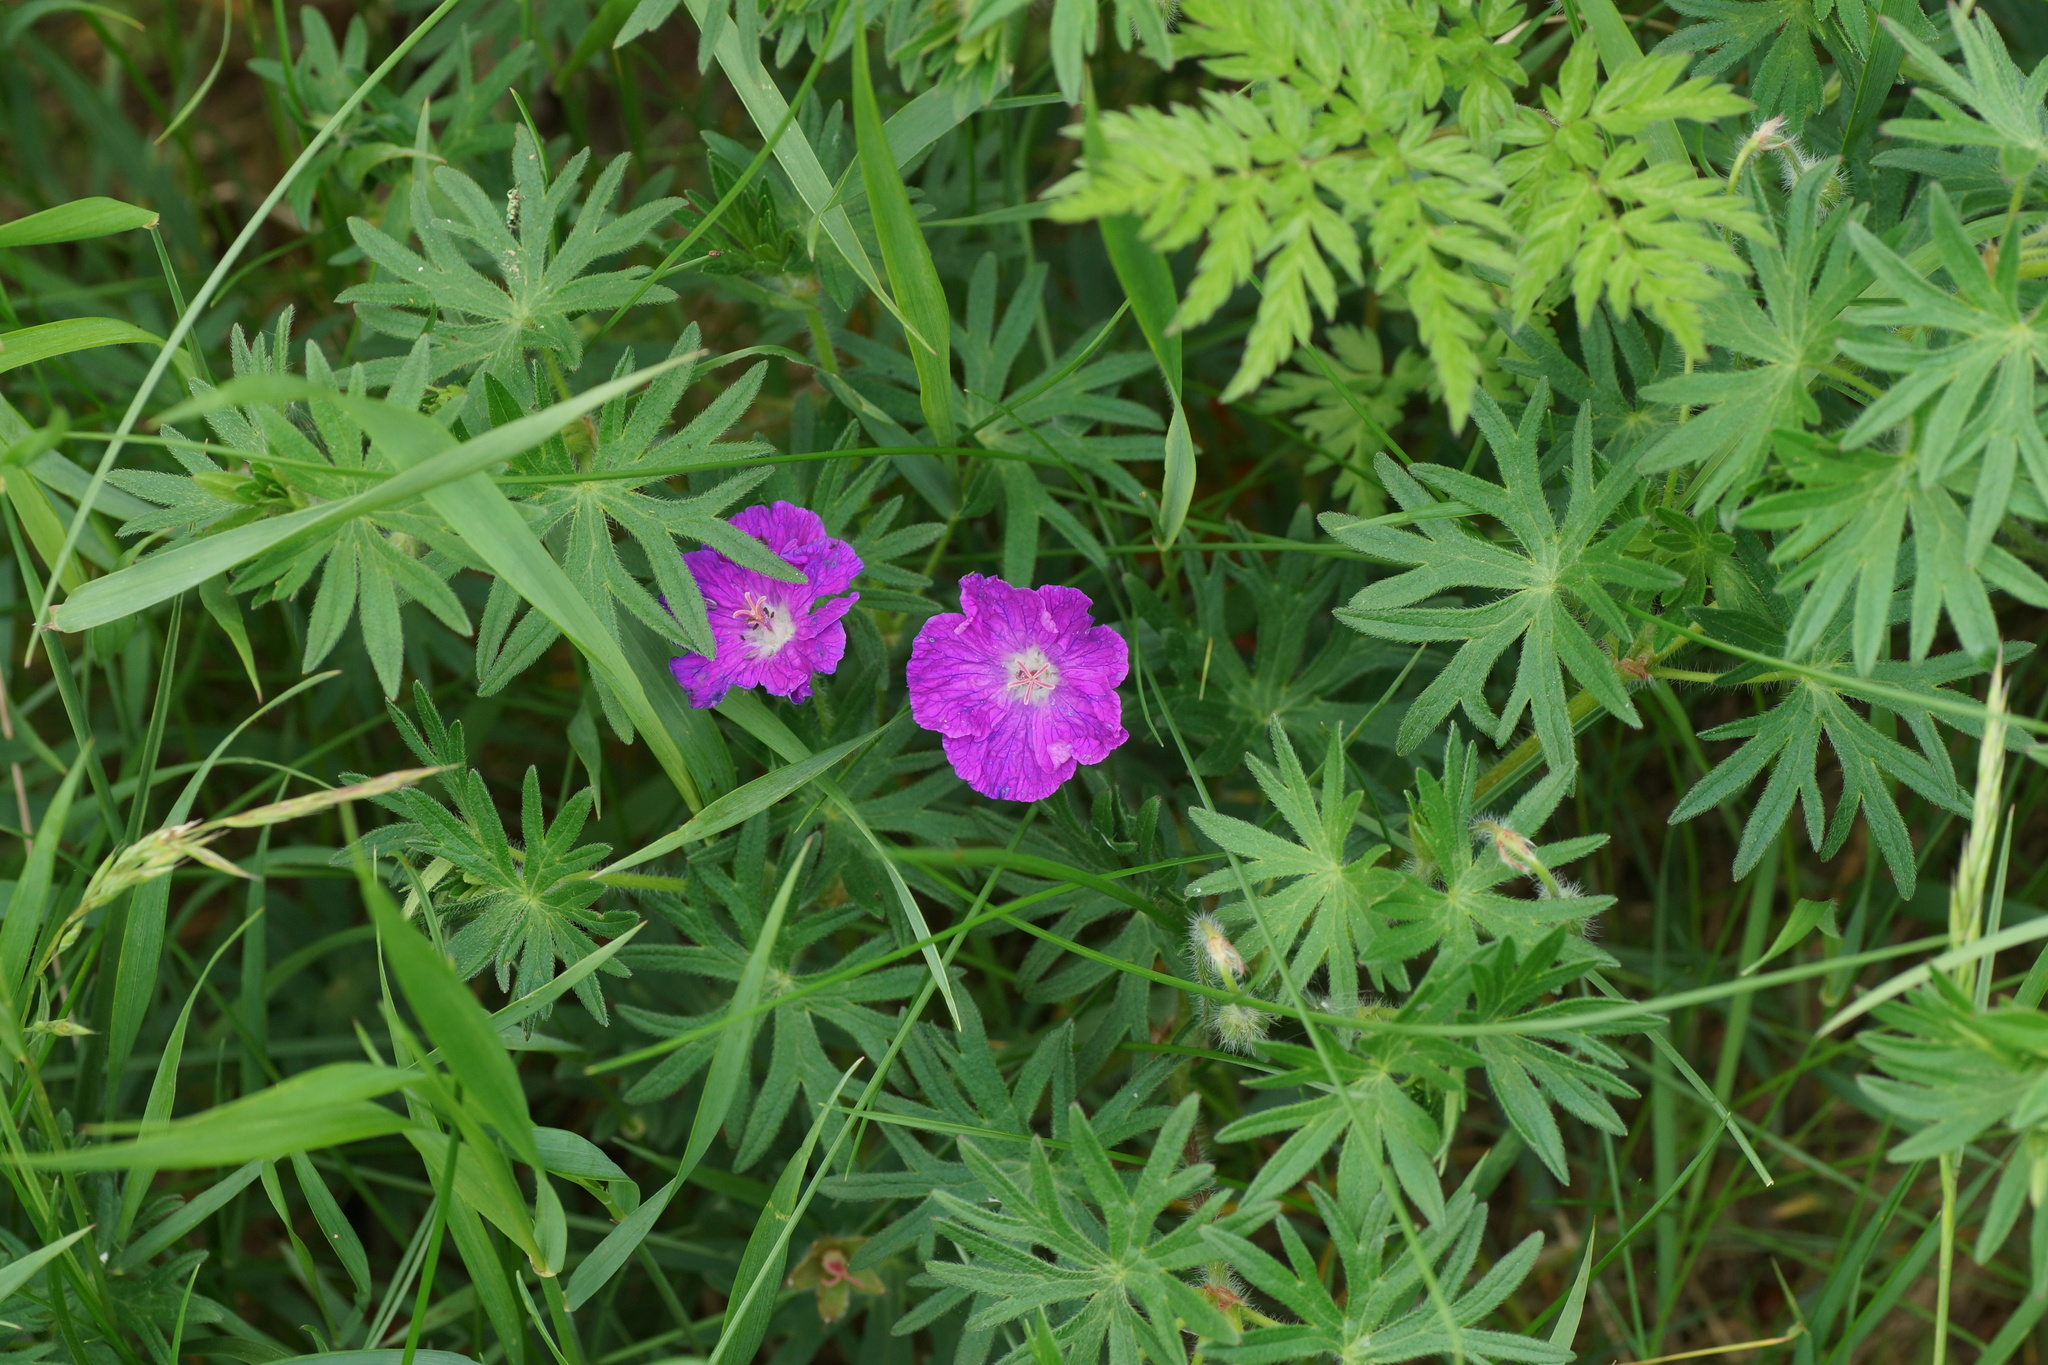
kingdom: Plantae
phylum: Tracheophyta
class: Magnoliopsida
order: Geraniales
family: Geraniaceae
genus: Geranium
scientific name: Geranium sanguineum
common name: Bloody crane's-bill
